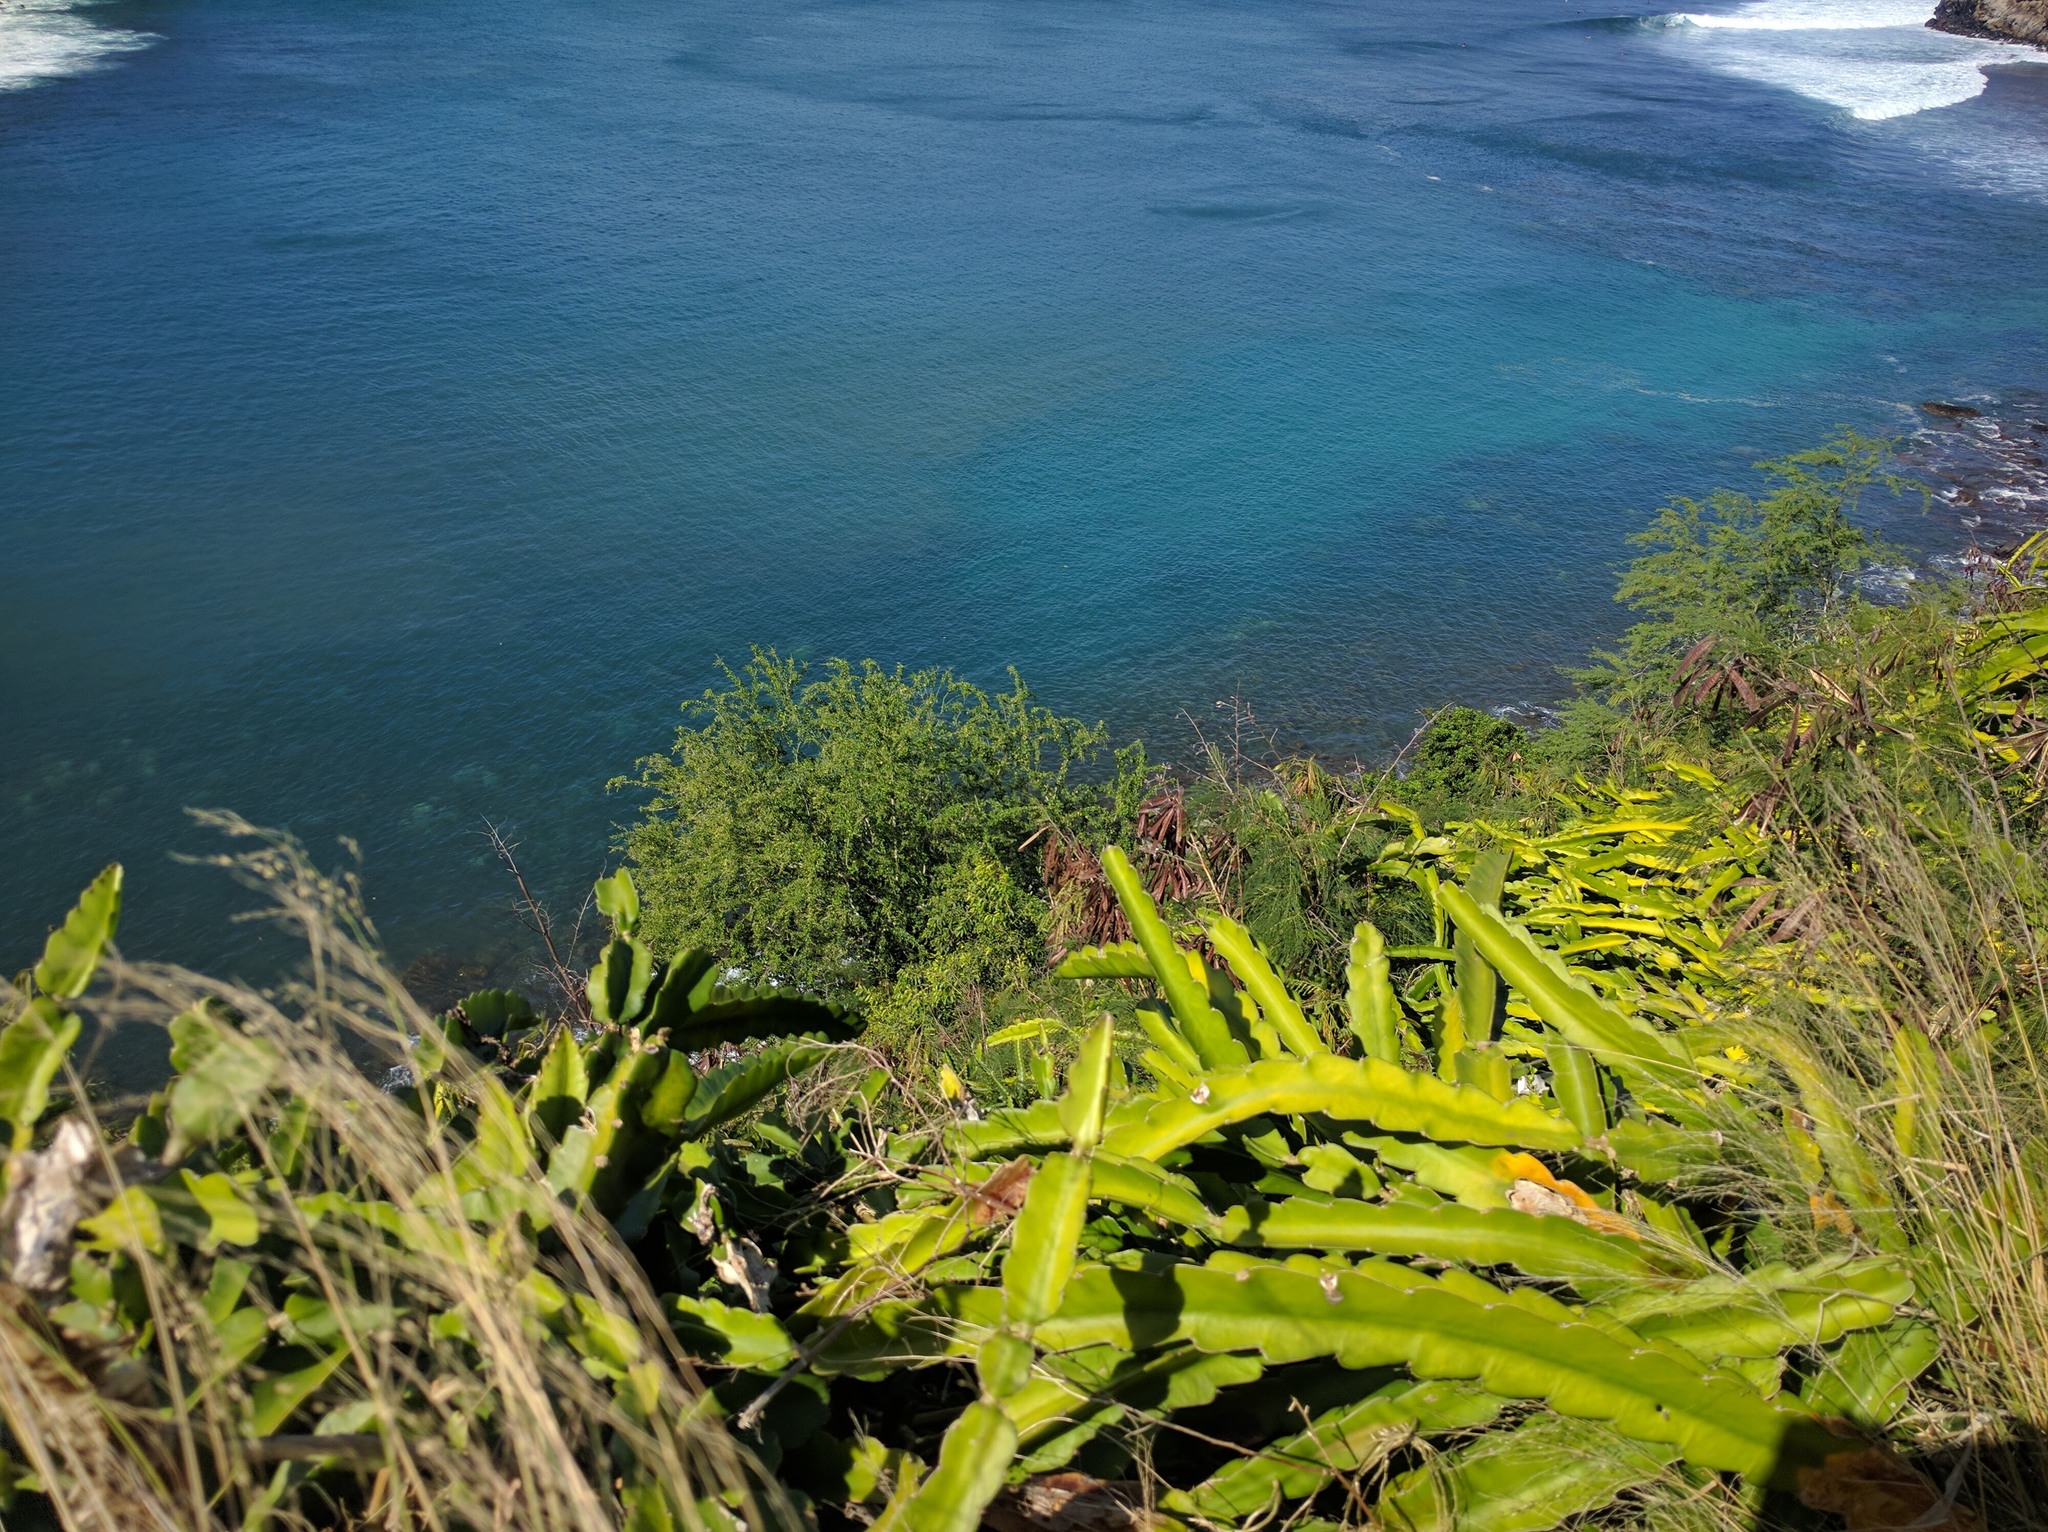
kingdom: Plantae
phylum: Tracheophyta
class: Magnoliopsida
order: Caryophyllales
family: Cactaceae
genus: Selenicereus
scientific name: Selenicereus undatus
